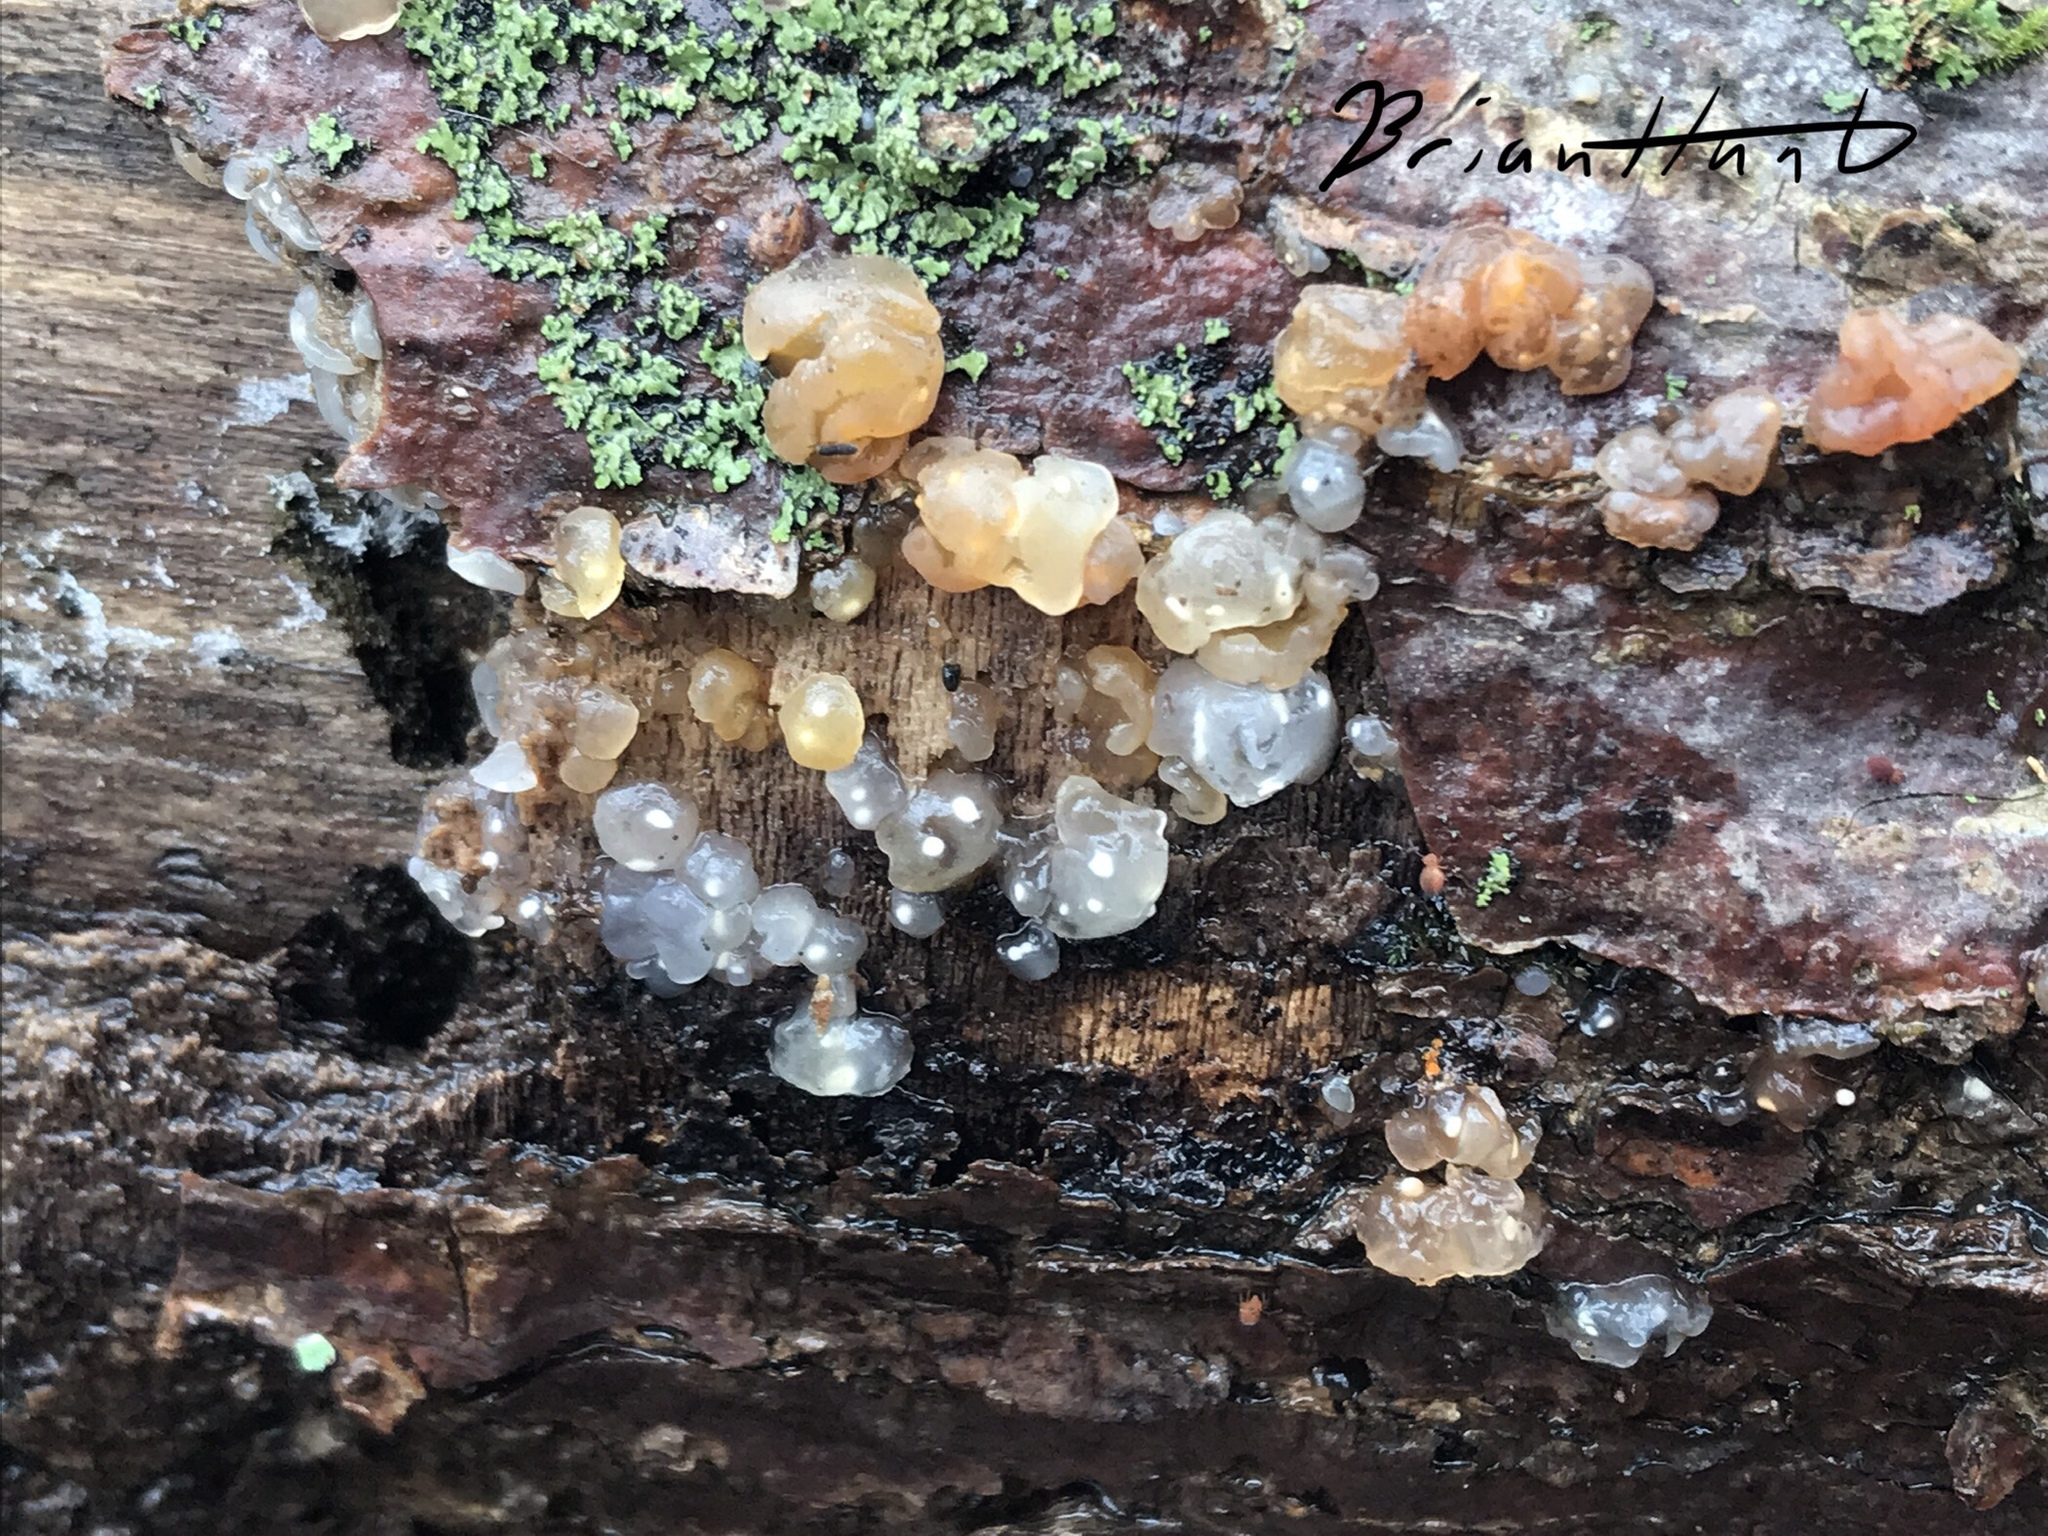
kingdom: Fungi
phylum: Basidiomycota
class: Agaricomycetes
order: Auriculariales
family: Hyaloriaceae
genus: Myxarium
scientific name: Myxarium nucleatum
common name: Crystal brain fungus
